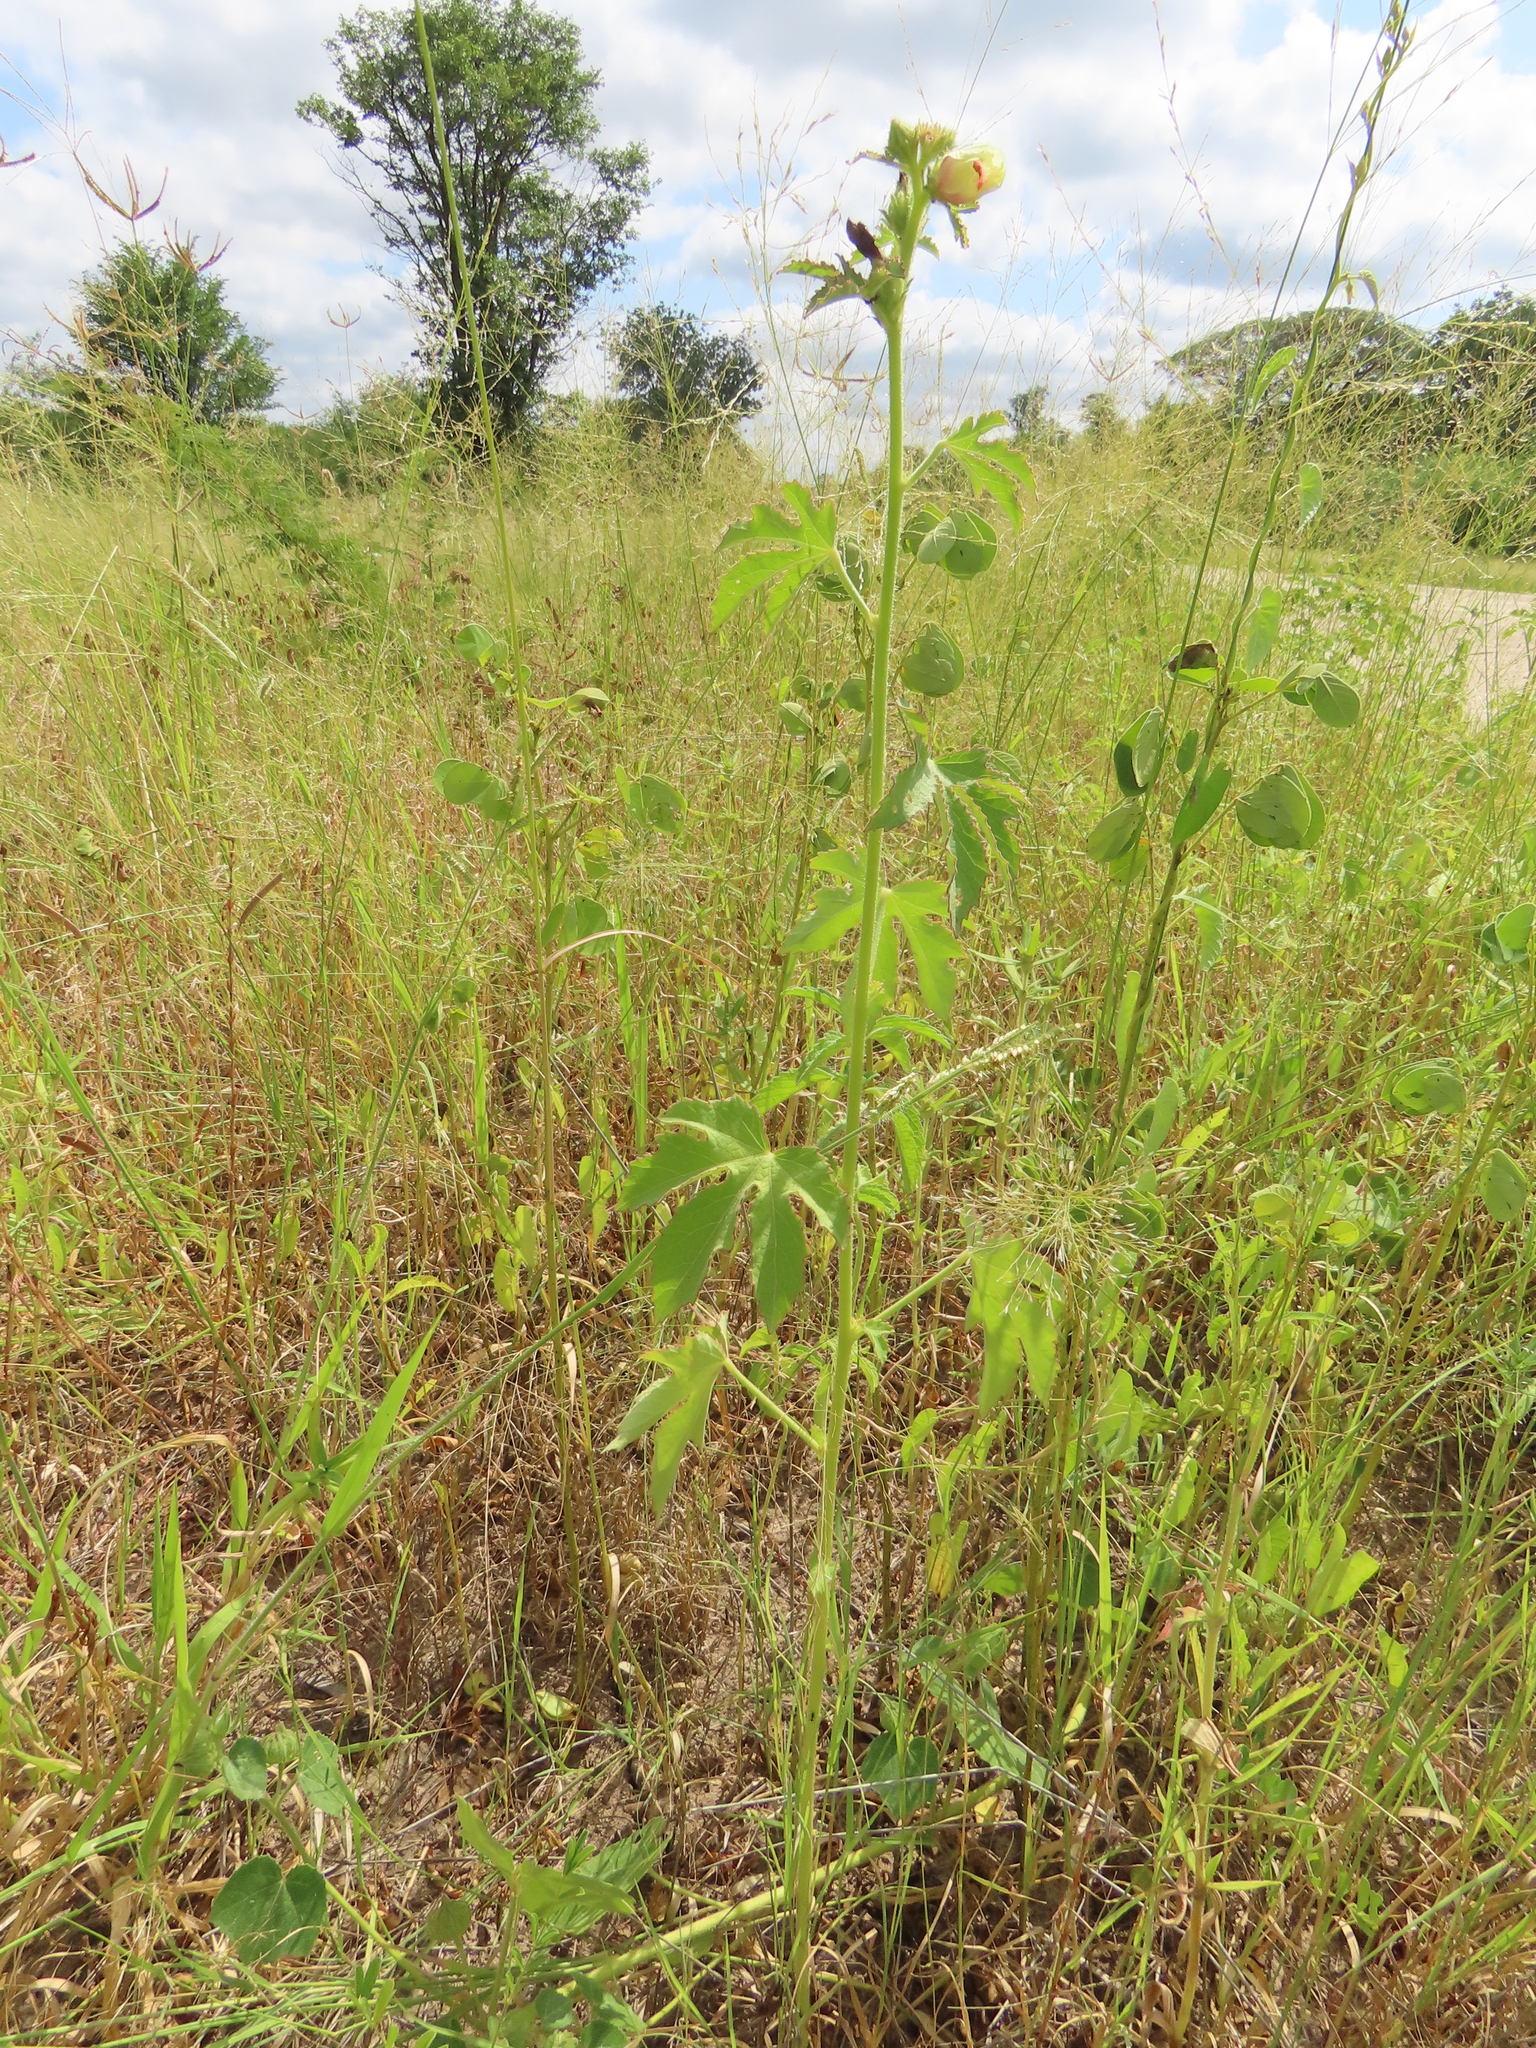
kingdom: Plantae
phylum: Tracheophyta
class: Magnoliopsida
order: Malvales
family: Malvaceae
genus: Hibiscus
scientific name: Hibiscus cannabinus
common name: Brown indianhemp
